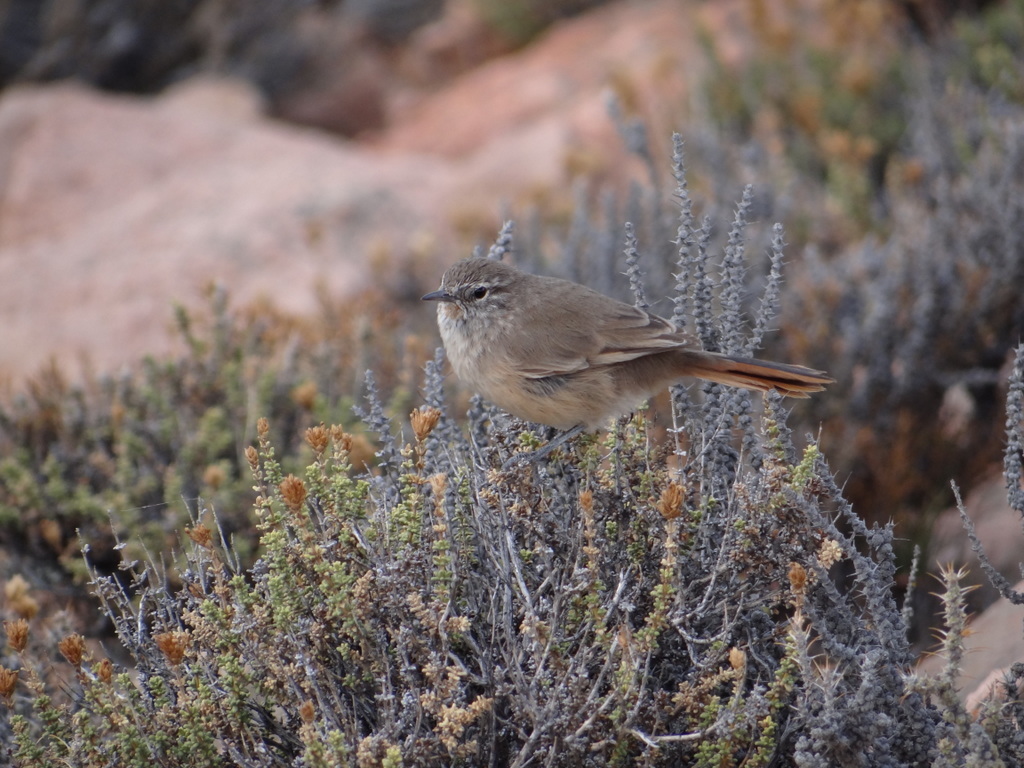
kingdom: Animalia
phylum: Chordata
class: Aves
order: Passeriformes
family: Furnariidae
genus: Asthenes
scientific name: Asthenes modesta
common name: Cordilleran canastero
